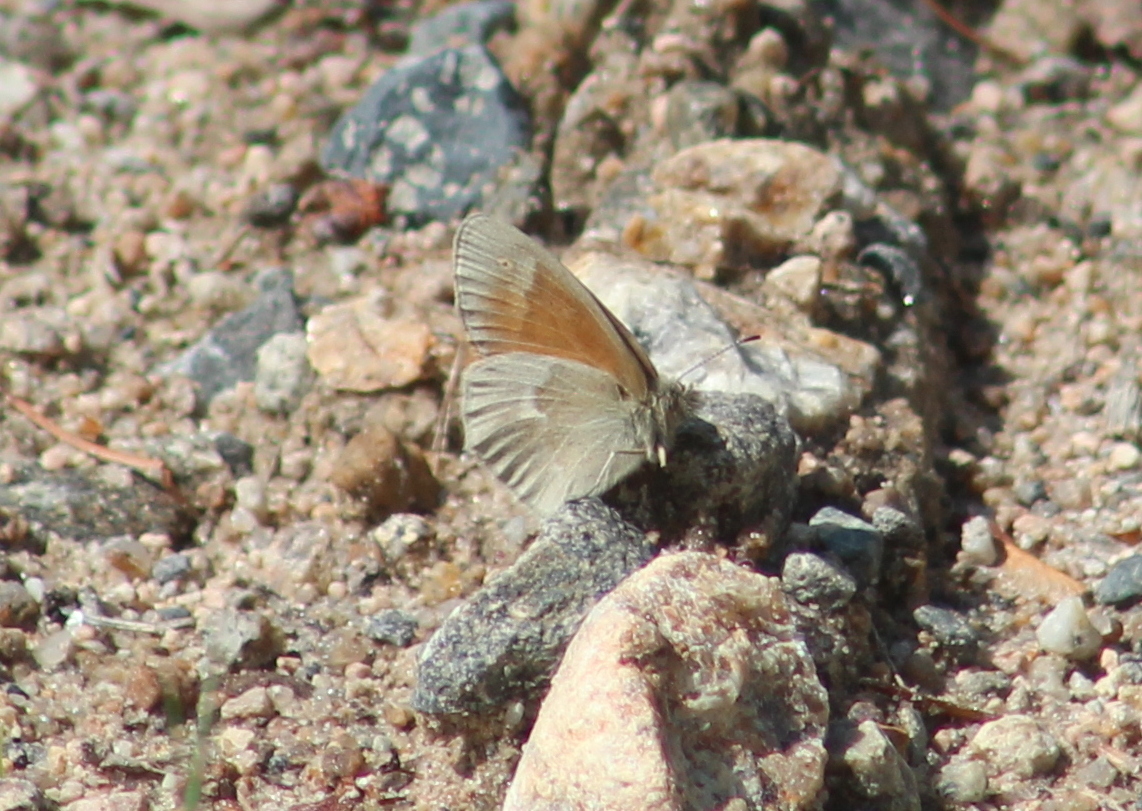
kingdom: Animalia
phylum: Arthropoda
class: Insecta
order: Lepidoptera
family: Nymphalidae
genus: Coenonympha
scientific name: Coenonympha california
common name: Common ringlet
